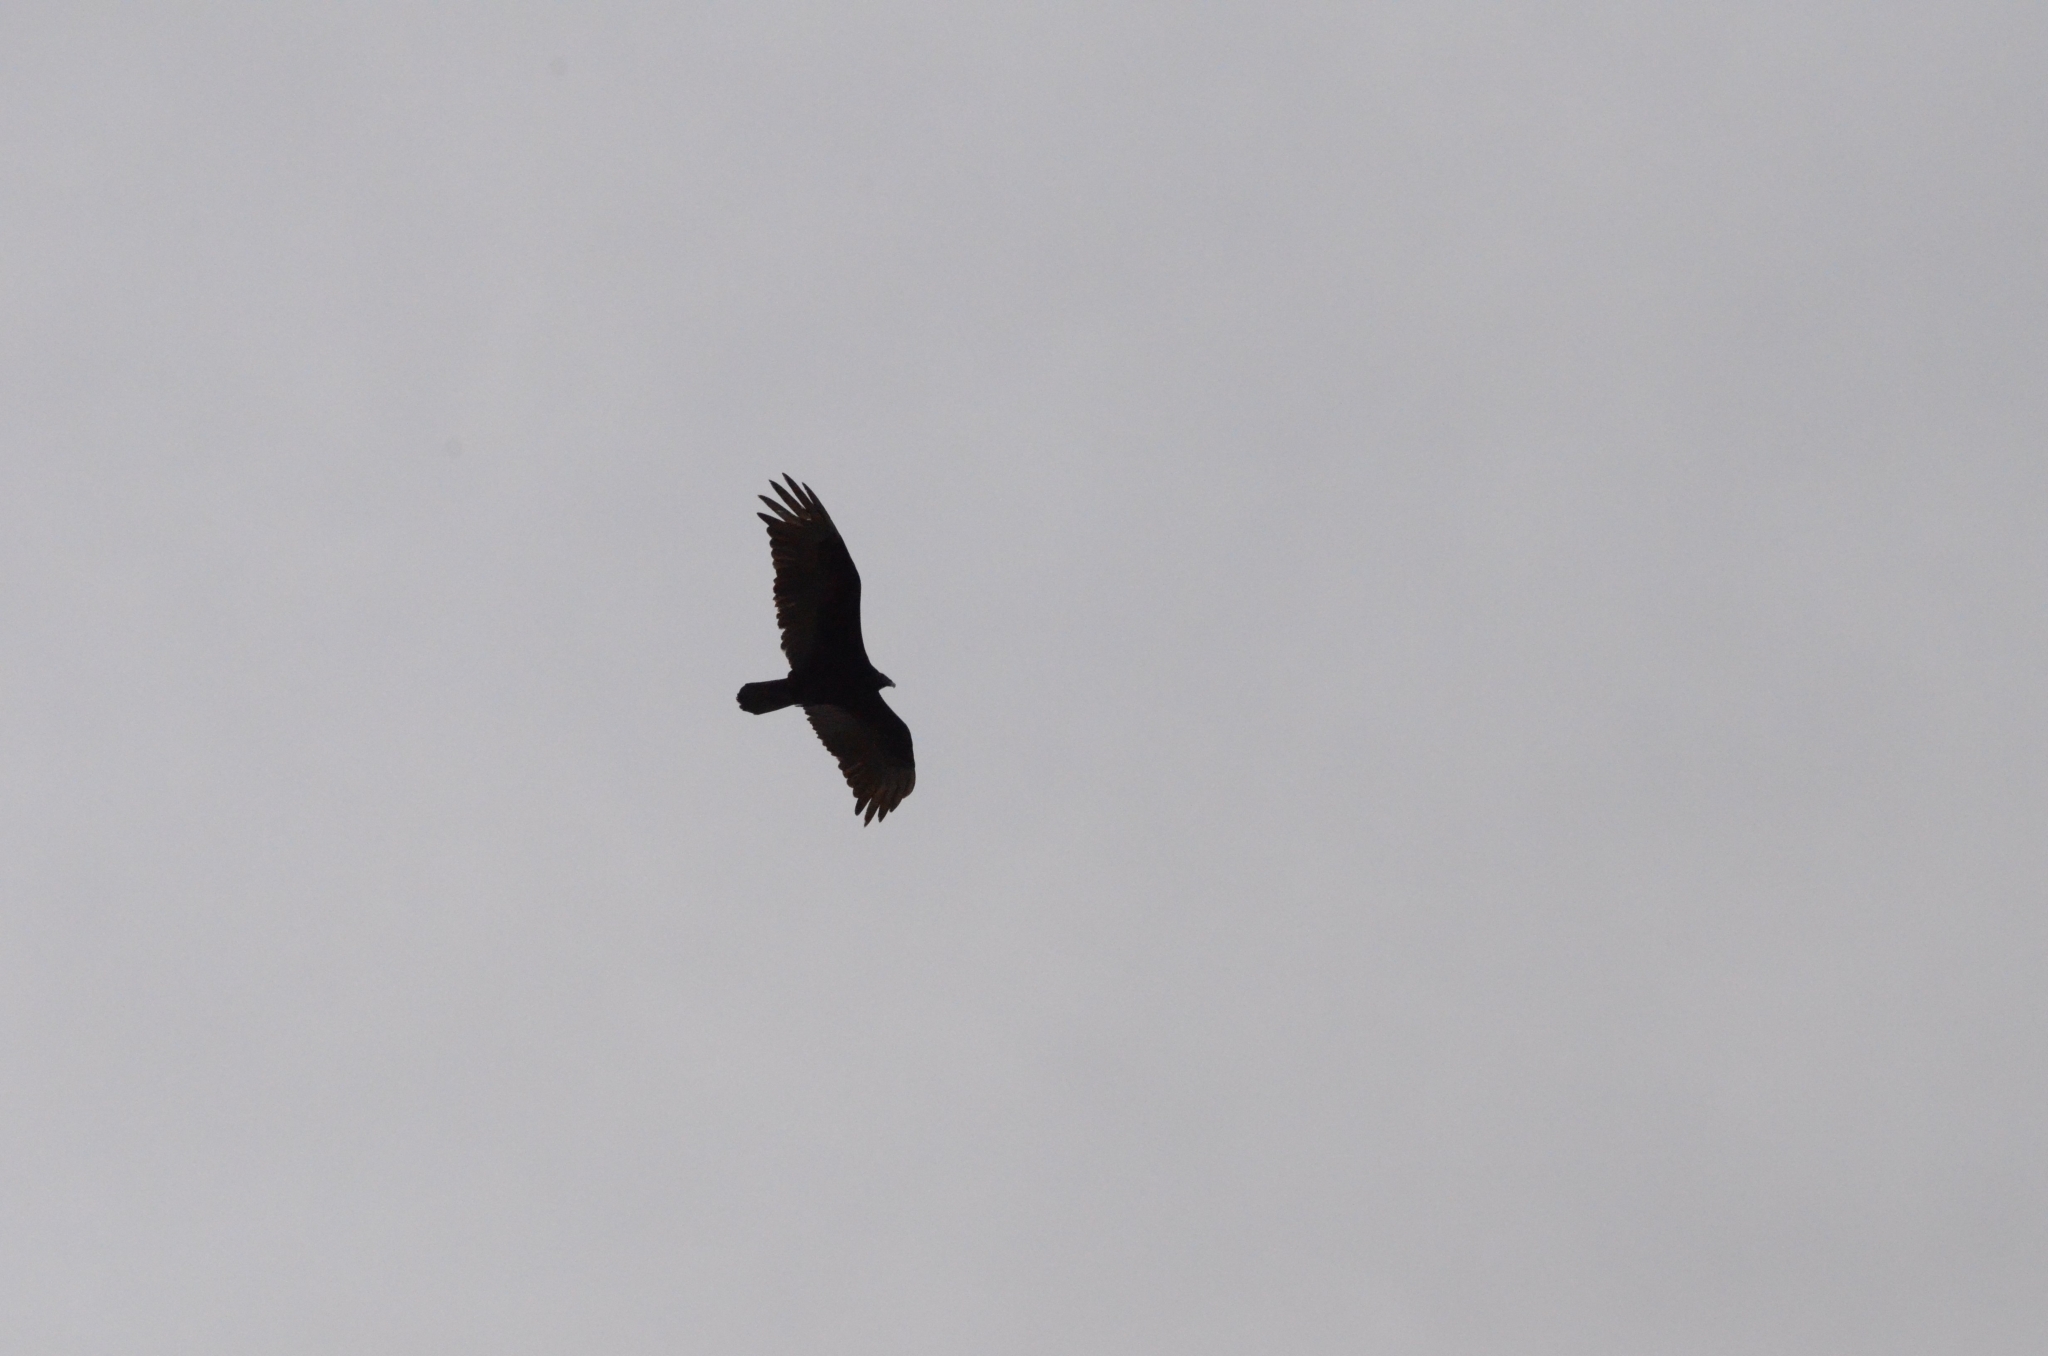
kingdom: Animalia
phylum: Chordata
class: Aves
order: Accipitriformes
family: Cathartidae
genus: Cathartes
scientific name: Cathartes aura
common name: Turkey vulture
